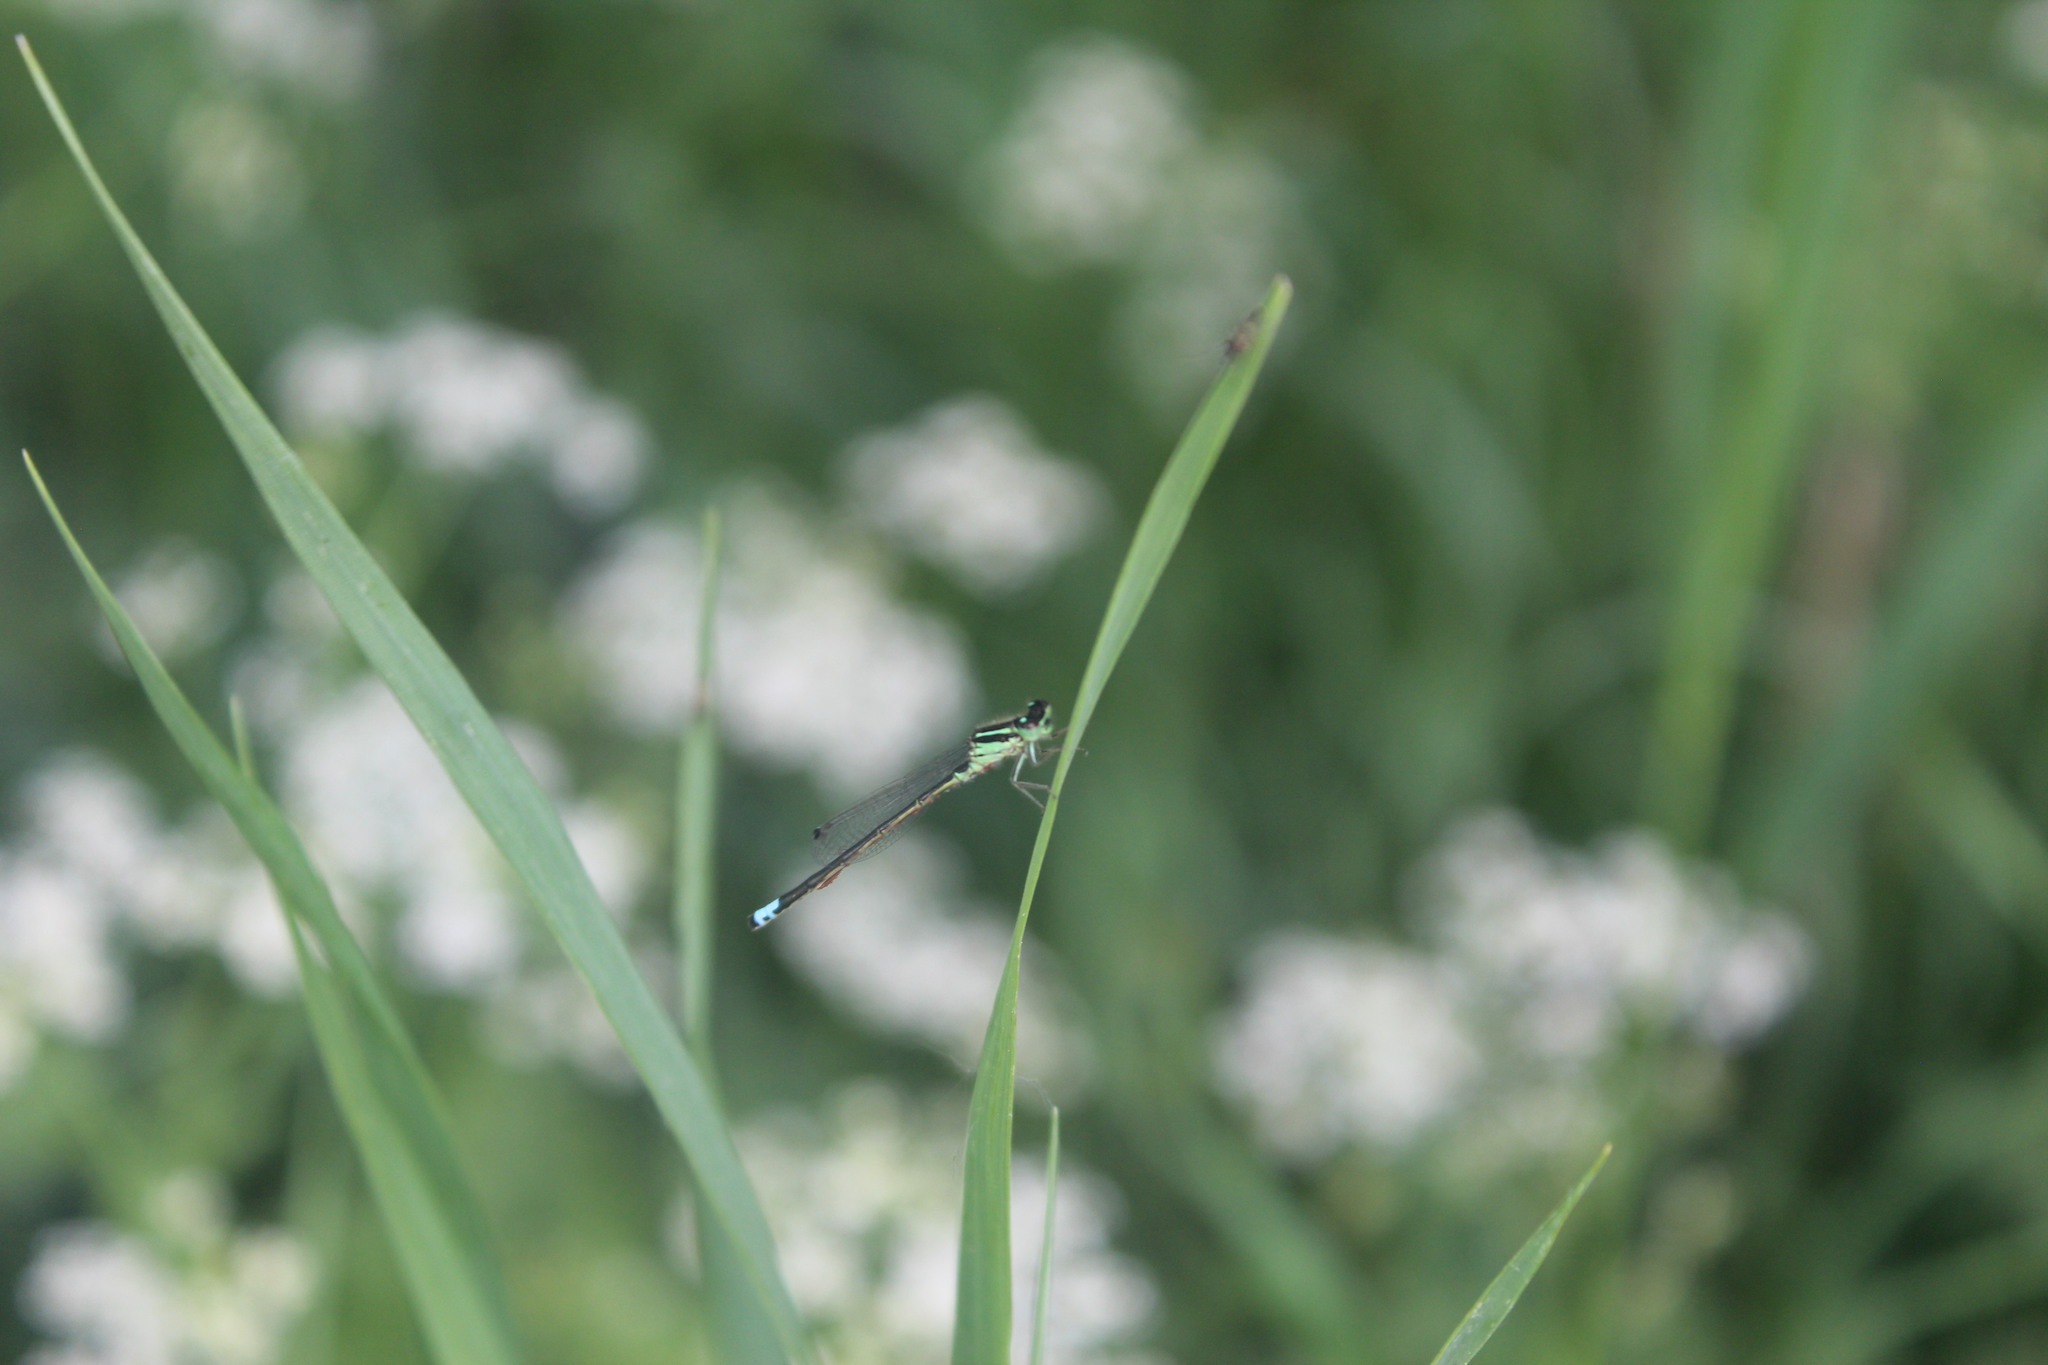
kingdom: Animalia
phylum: Arthropoda
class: Insecta
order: Odonata
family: Coenagrionidae
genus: Ischnura
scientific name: Ischnura verticalis
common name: Eastern forktail
